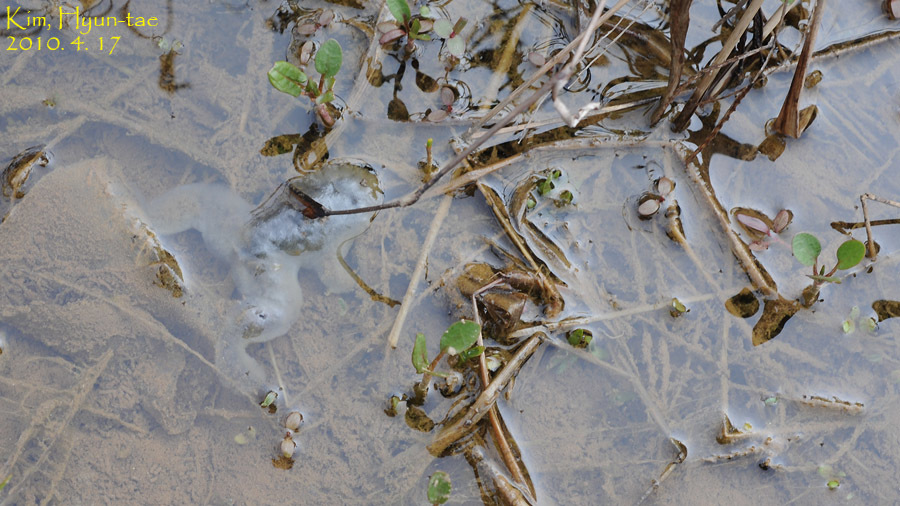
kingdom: Animalia
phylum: Chordata
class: Amphibia
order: Anura
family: Ranidae
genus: Lithobates
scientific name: Lithobates catesbeianus
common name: American bullfrog
